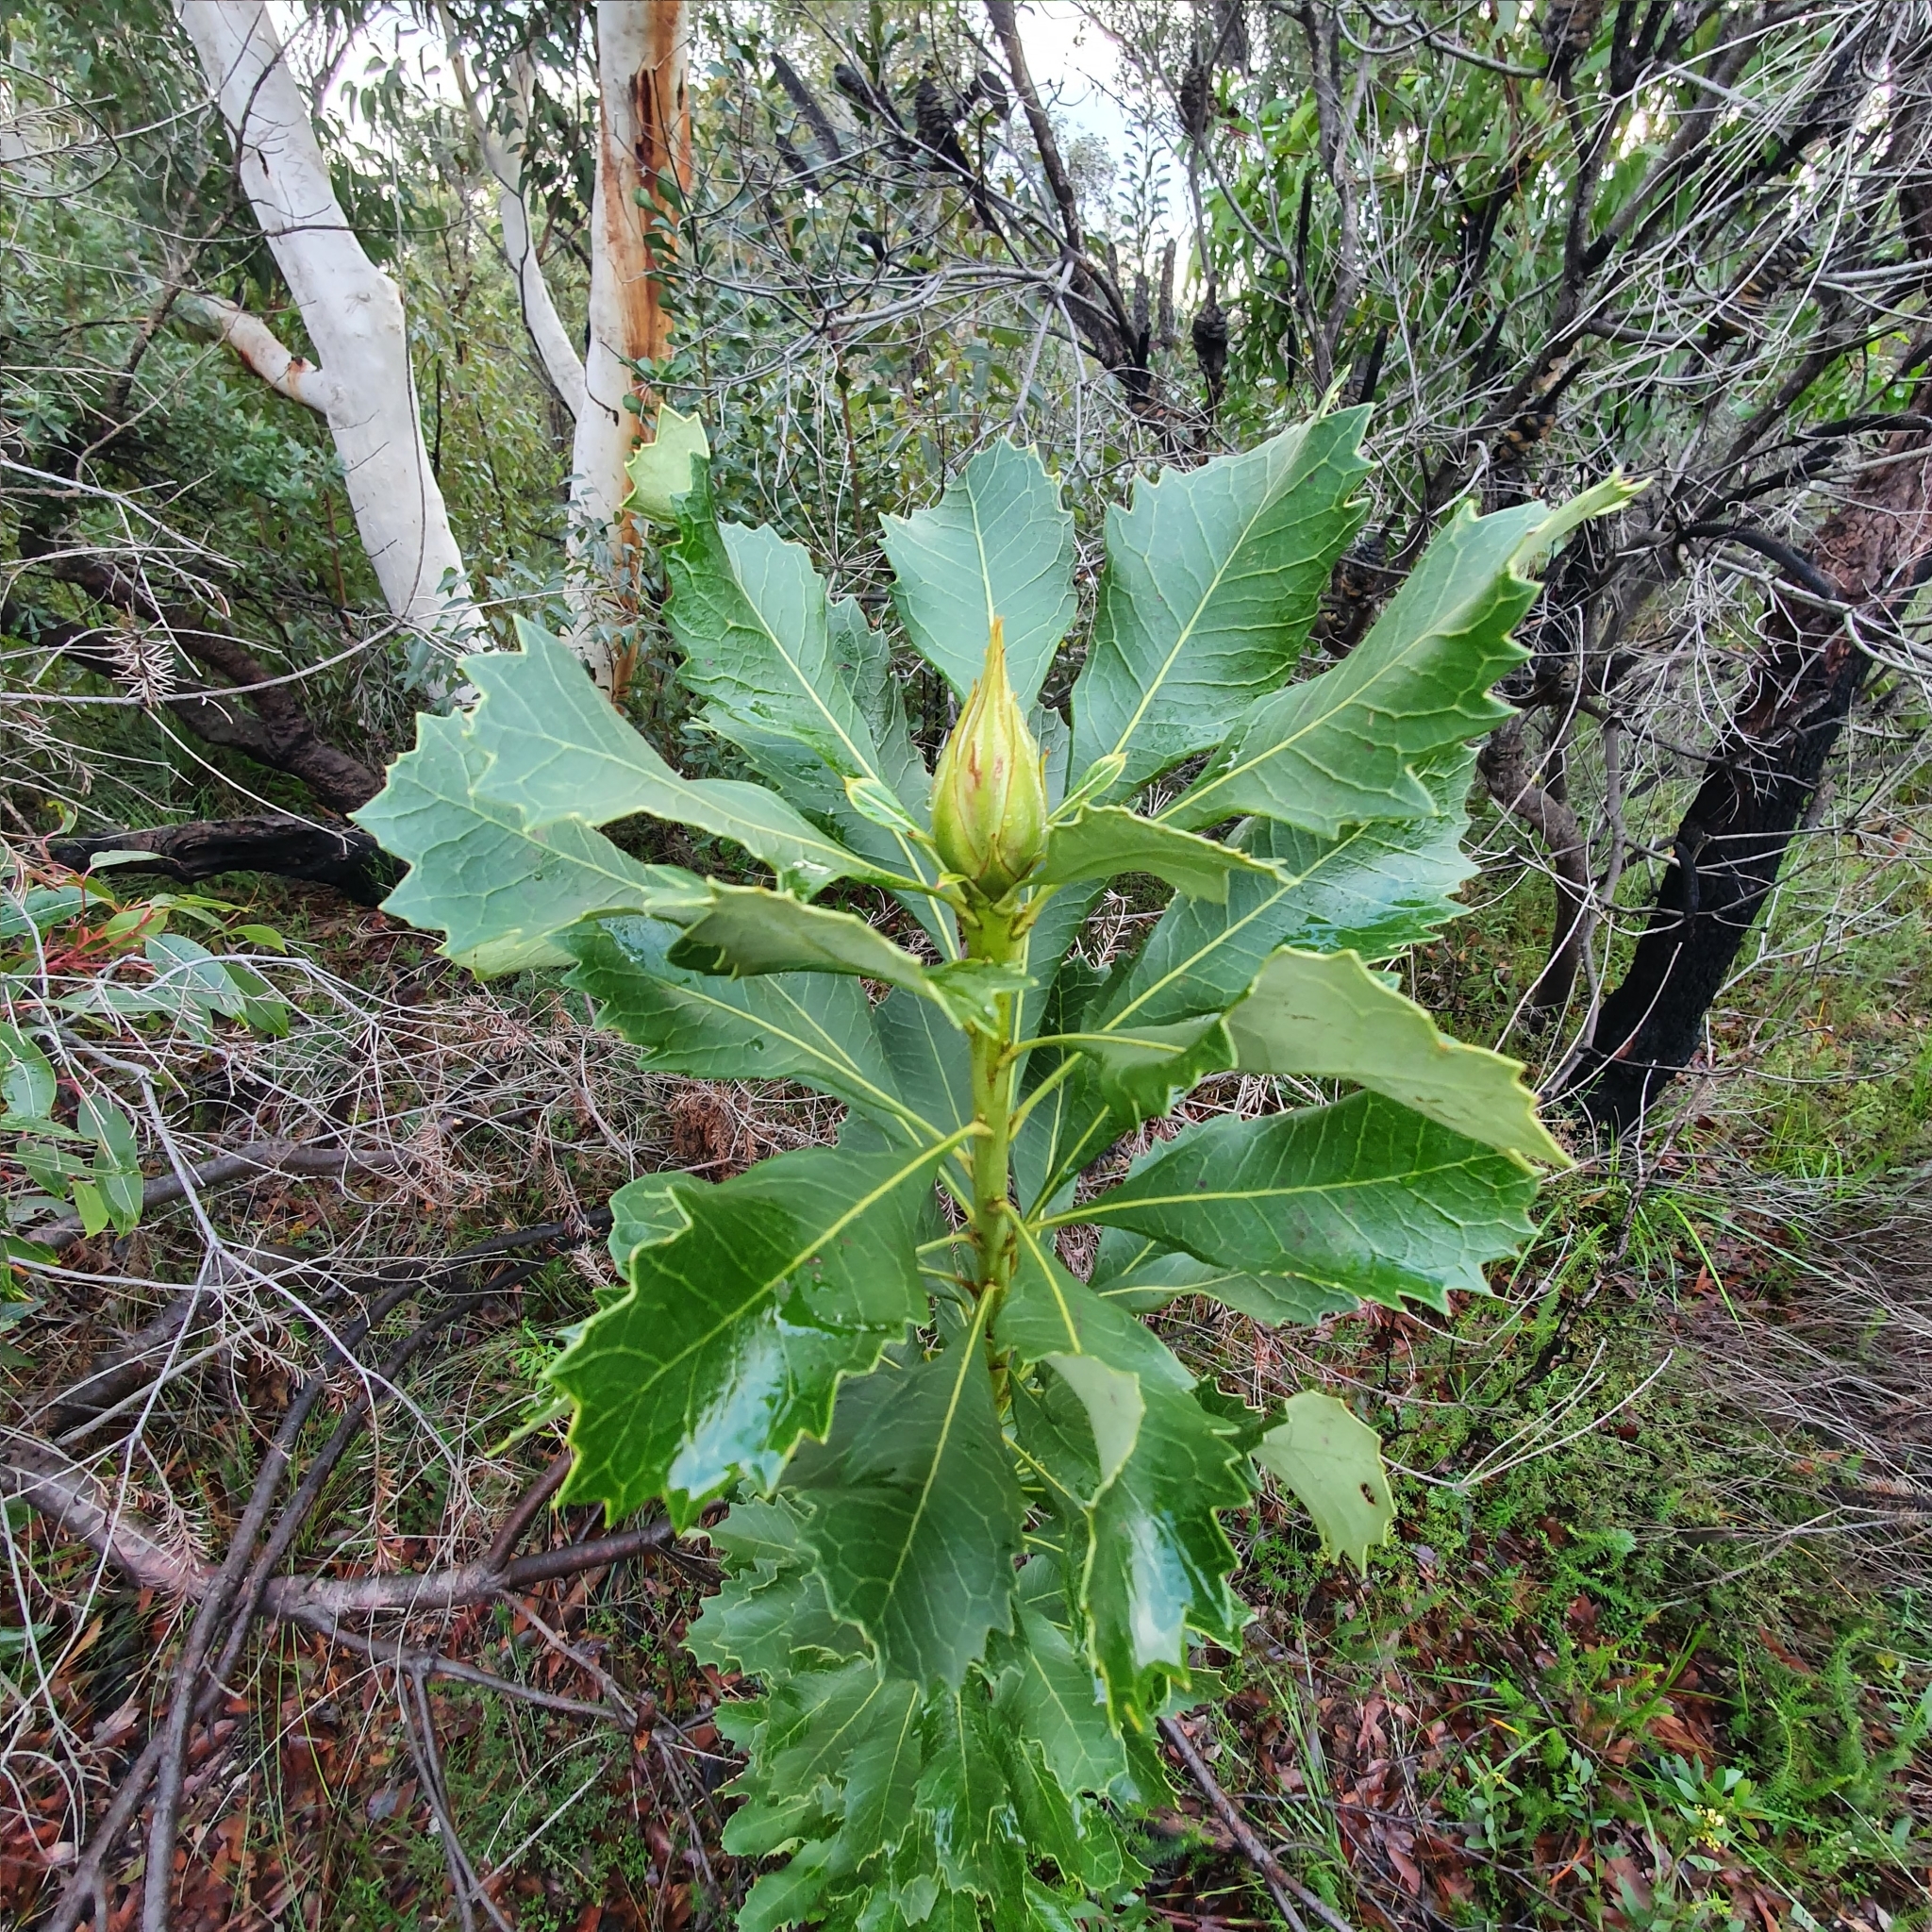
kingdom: Plantae
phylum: Tracheophyta
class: Magnoliopsida
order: Proteales
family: Proteaceae
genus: Telopea
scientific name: Telopea speciosissima
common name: New south wales waratah
